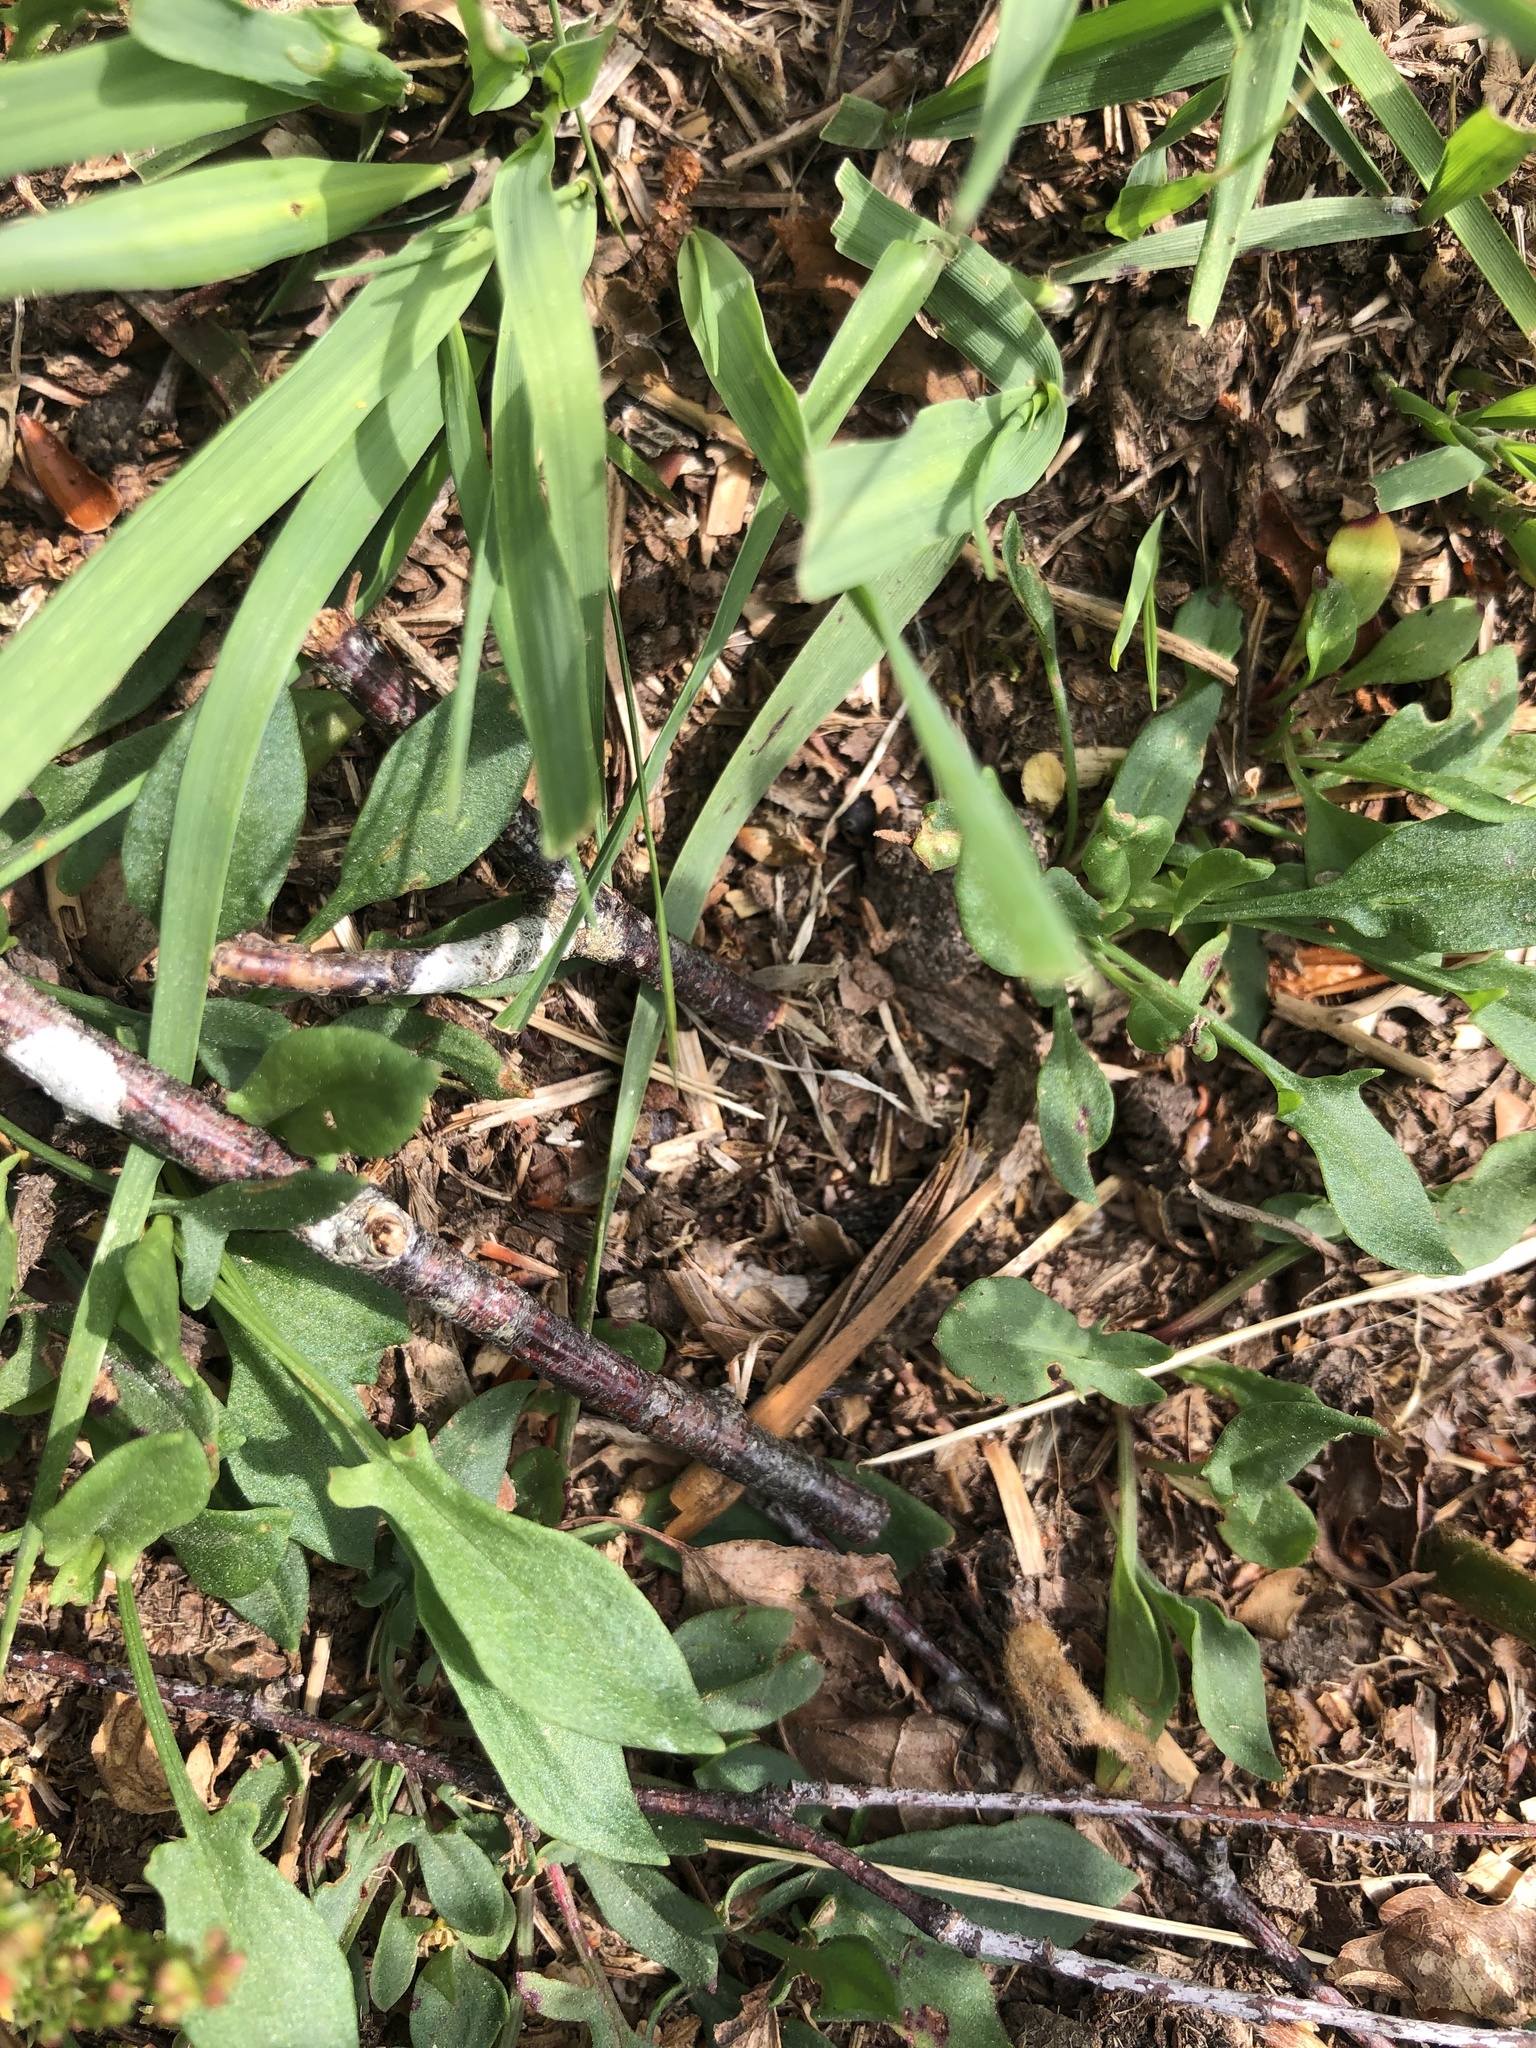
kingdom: Plantae
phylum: Tracheophyta
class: Magnoliopsida
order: Caryophyllales
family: Polygonaceae
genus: Rumex
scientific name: Rumex acetosella
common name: Common sheep sorrel
